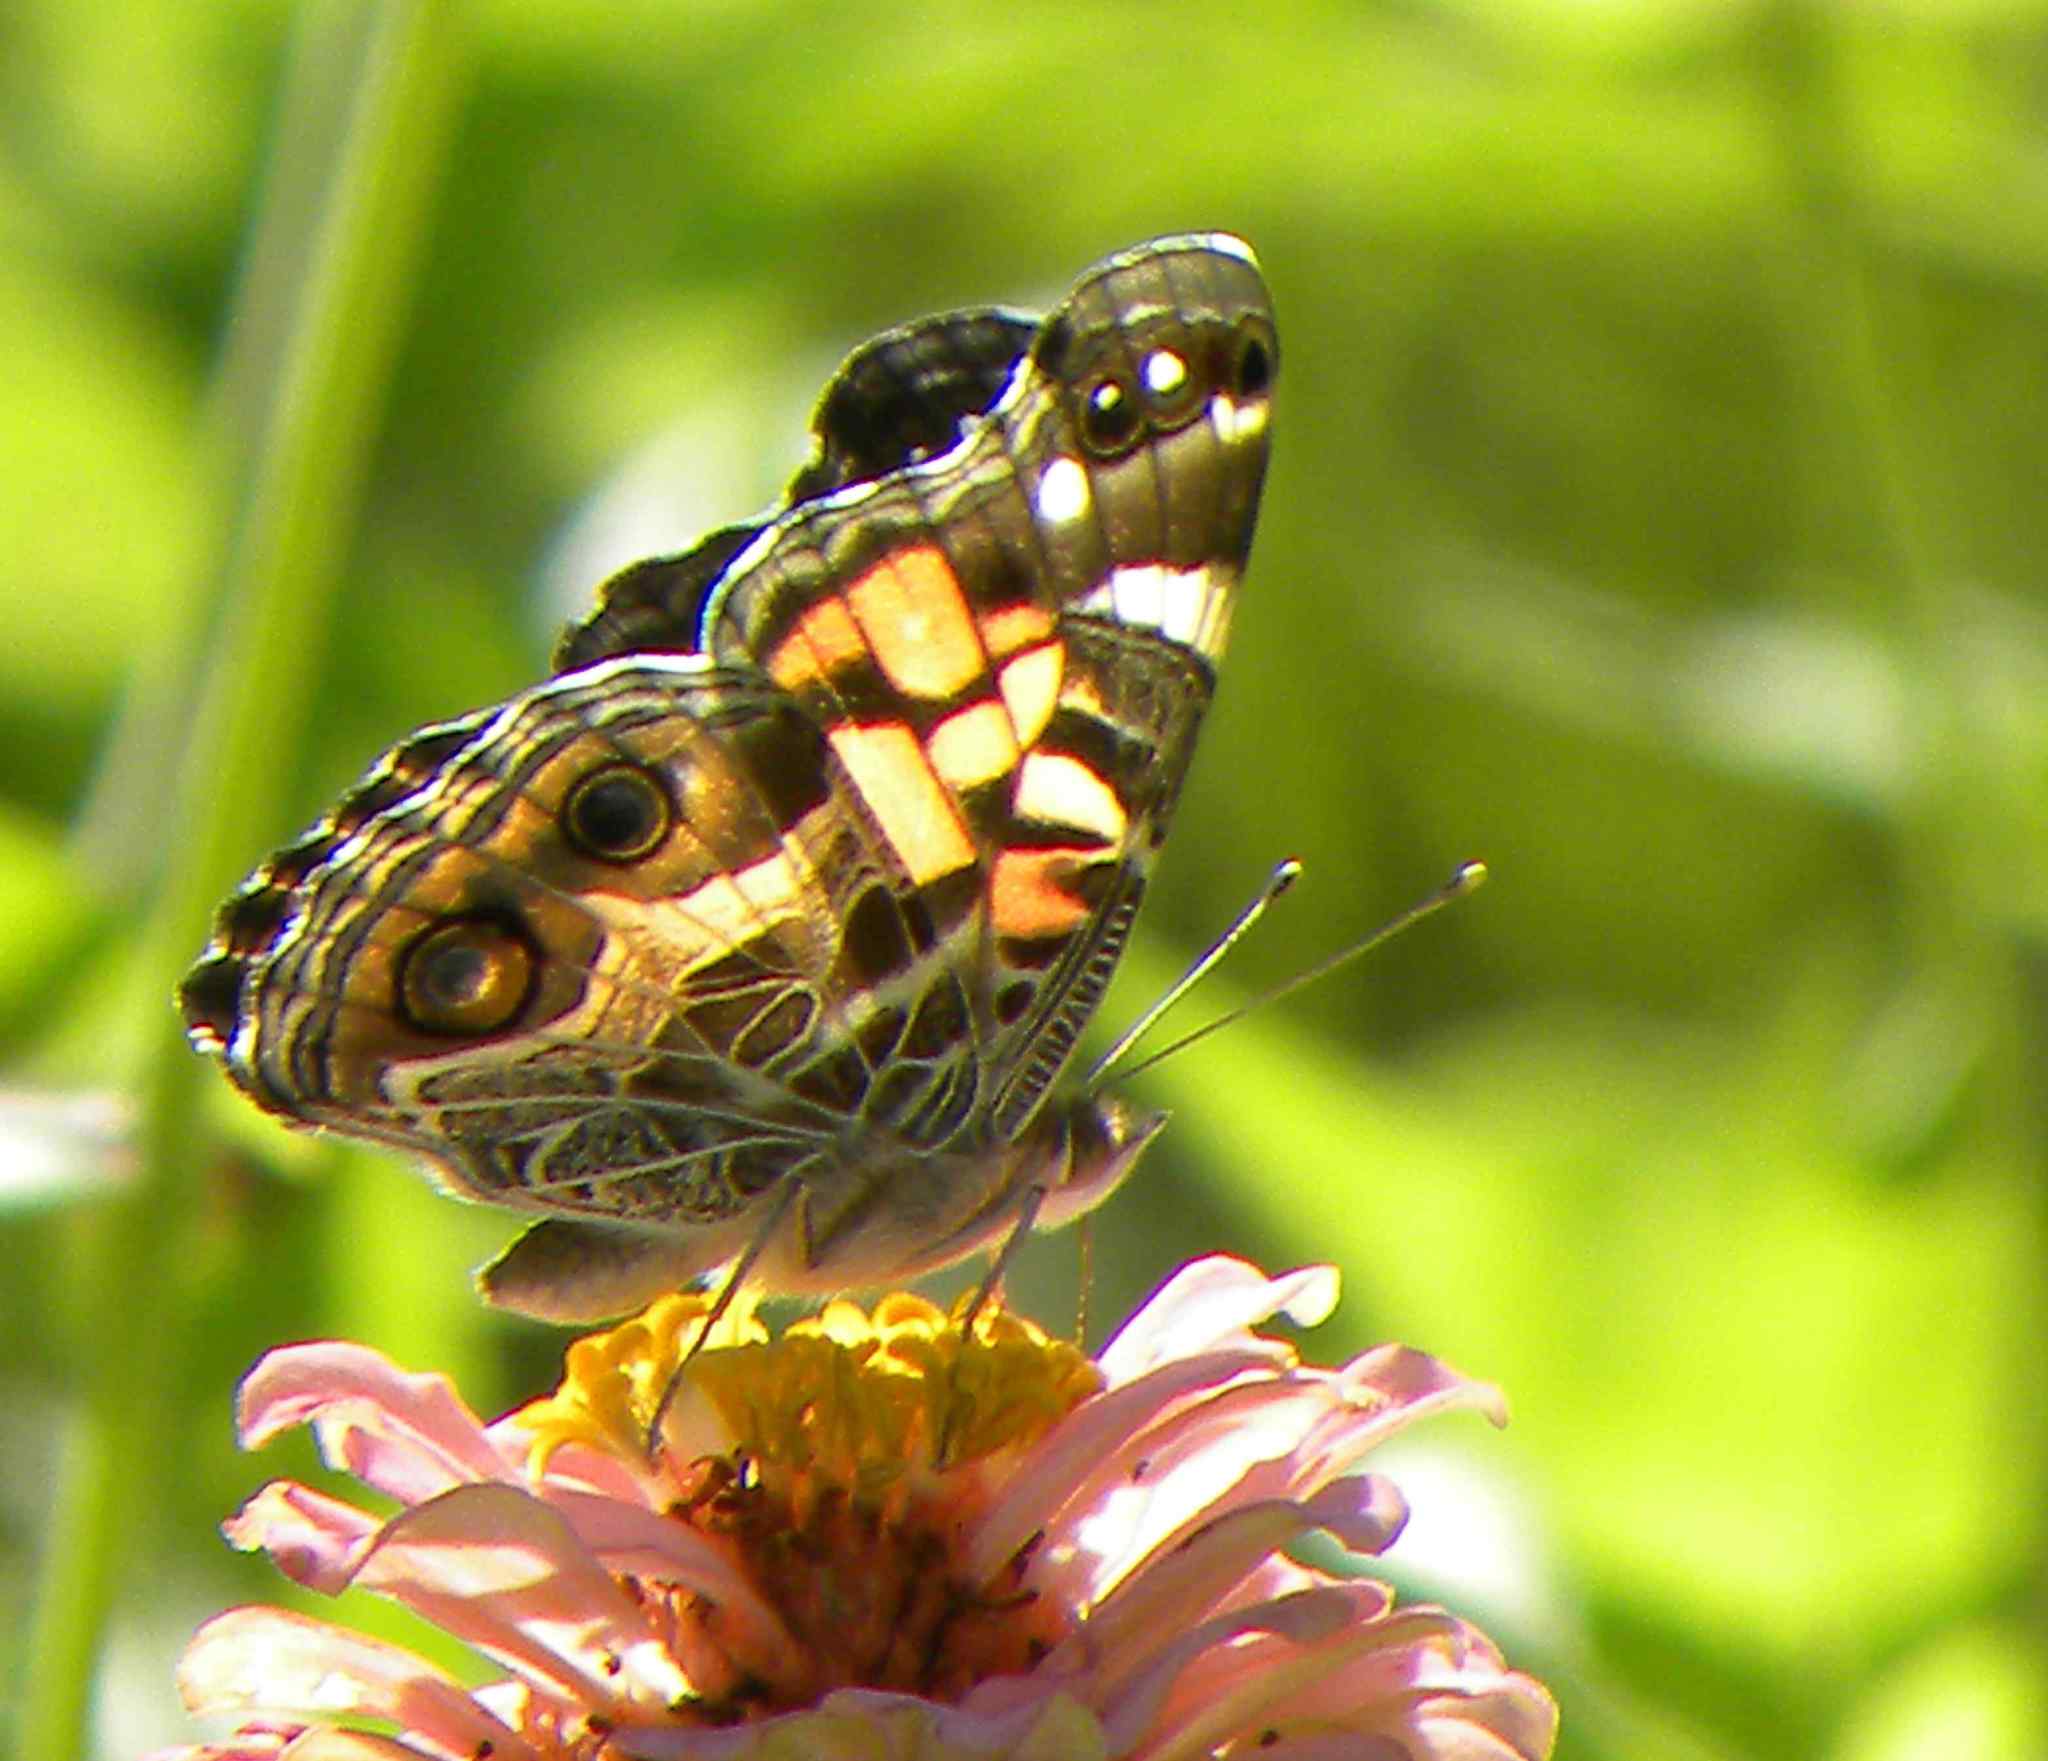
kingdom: Animalia
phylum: Arthropoda
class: Insecta
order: Lepidoptera
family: Nymphalidae
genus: Vanessa
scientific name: Vanessa virginiensis
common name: American lady
